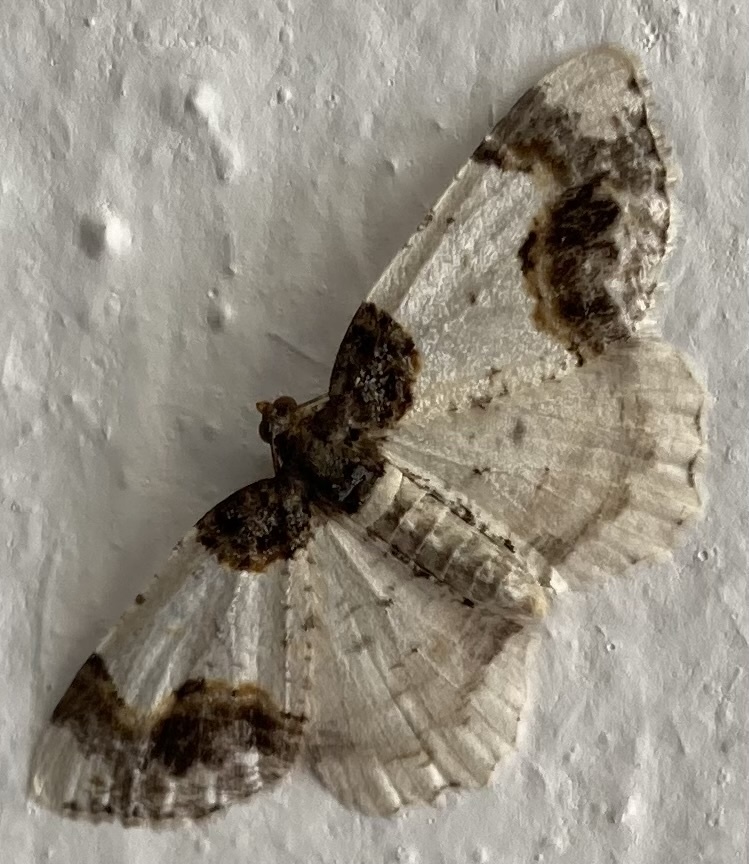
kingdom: Animalia
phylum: Arthropoda
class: Insecta
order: Lepidoptera
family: Geometridae
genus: Ligdia
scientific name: Ligdia adustata
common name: Scorched carpet
